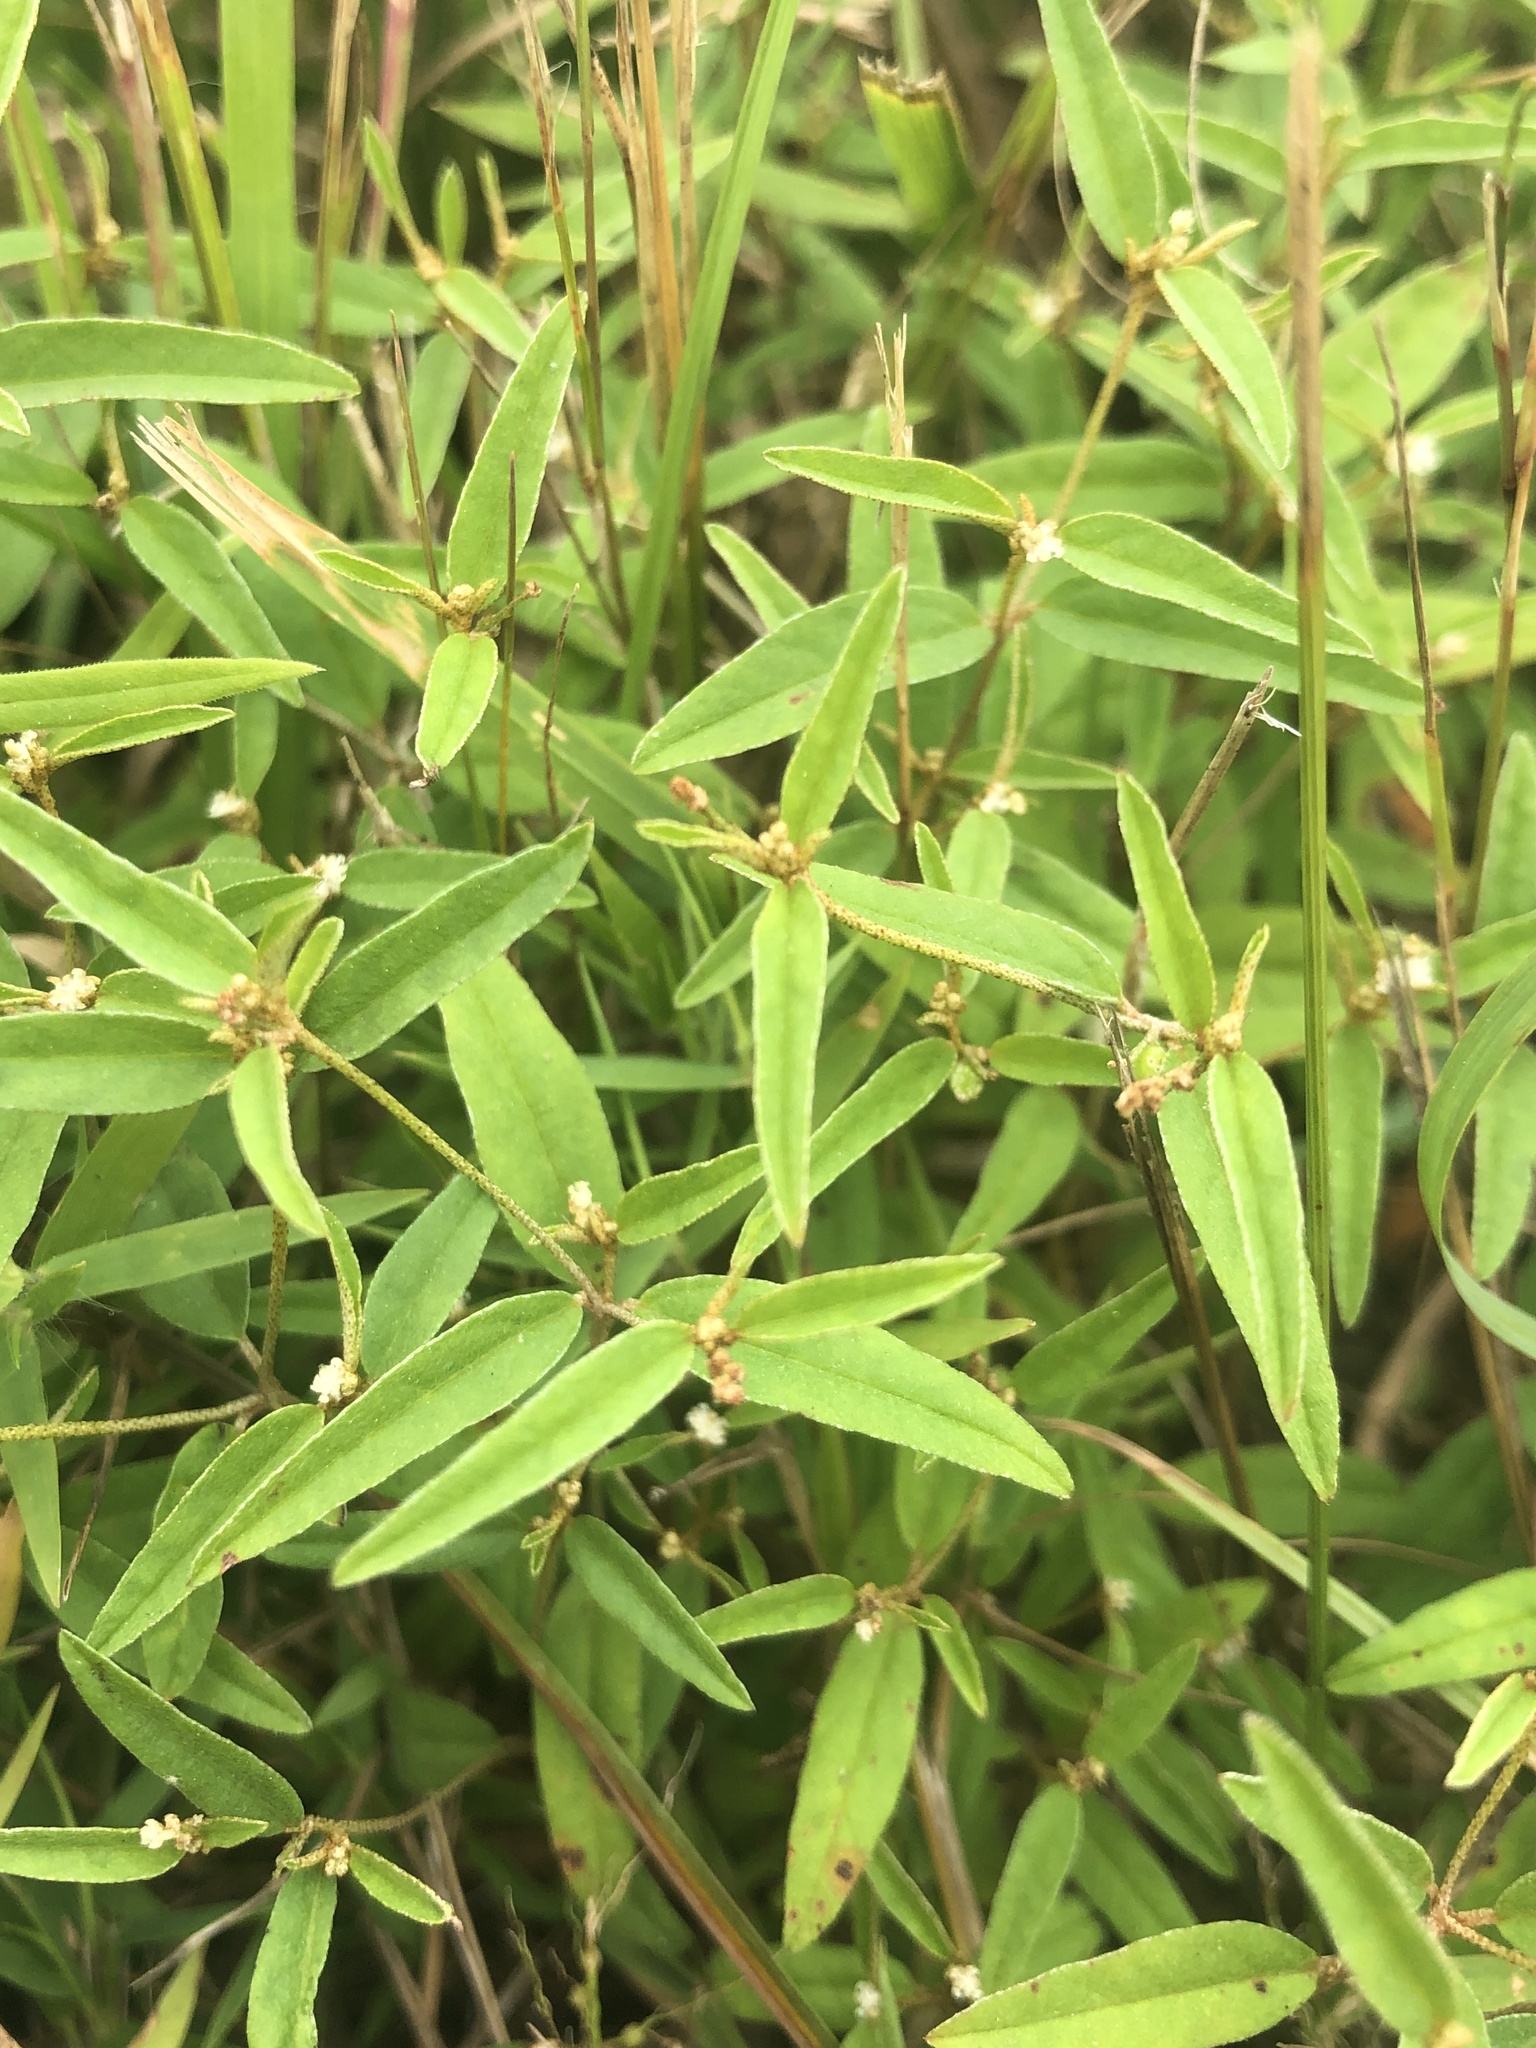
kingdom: Plantae
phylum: Tracheophyta
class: Magnoliopsida
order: Malpighiales
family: Euphorbiaceae
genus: Croton
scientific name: Croton michauxii
